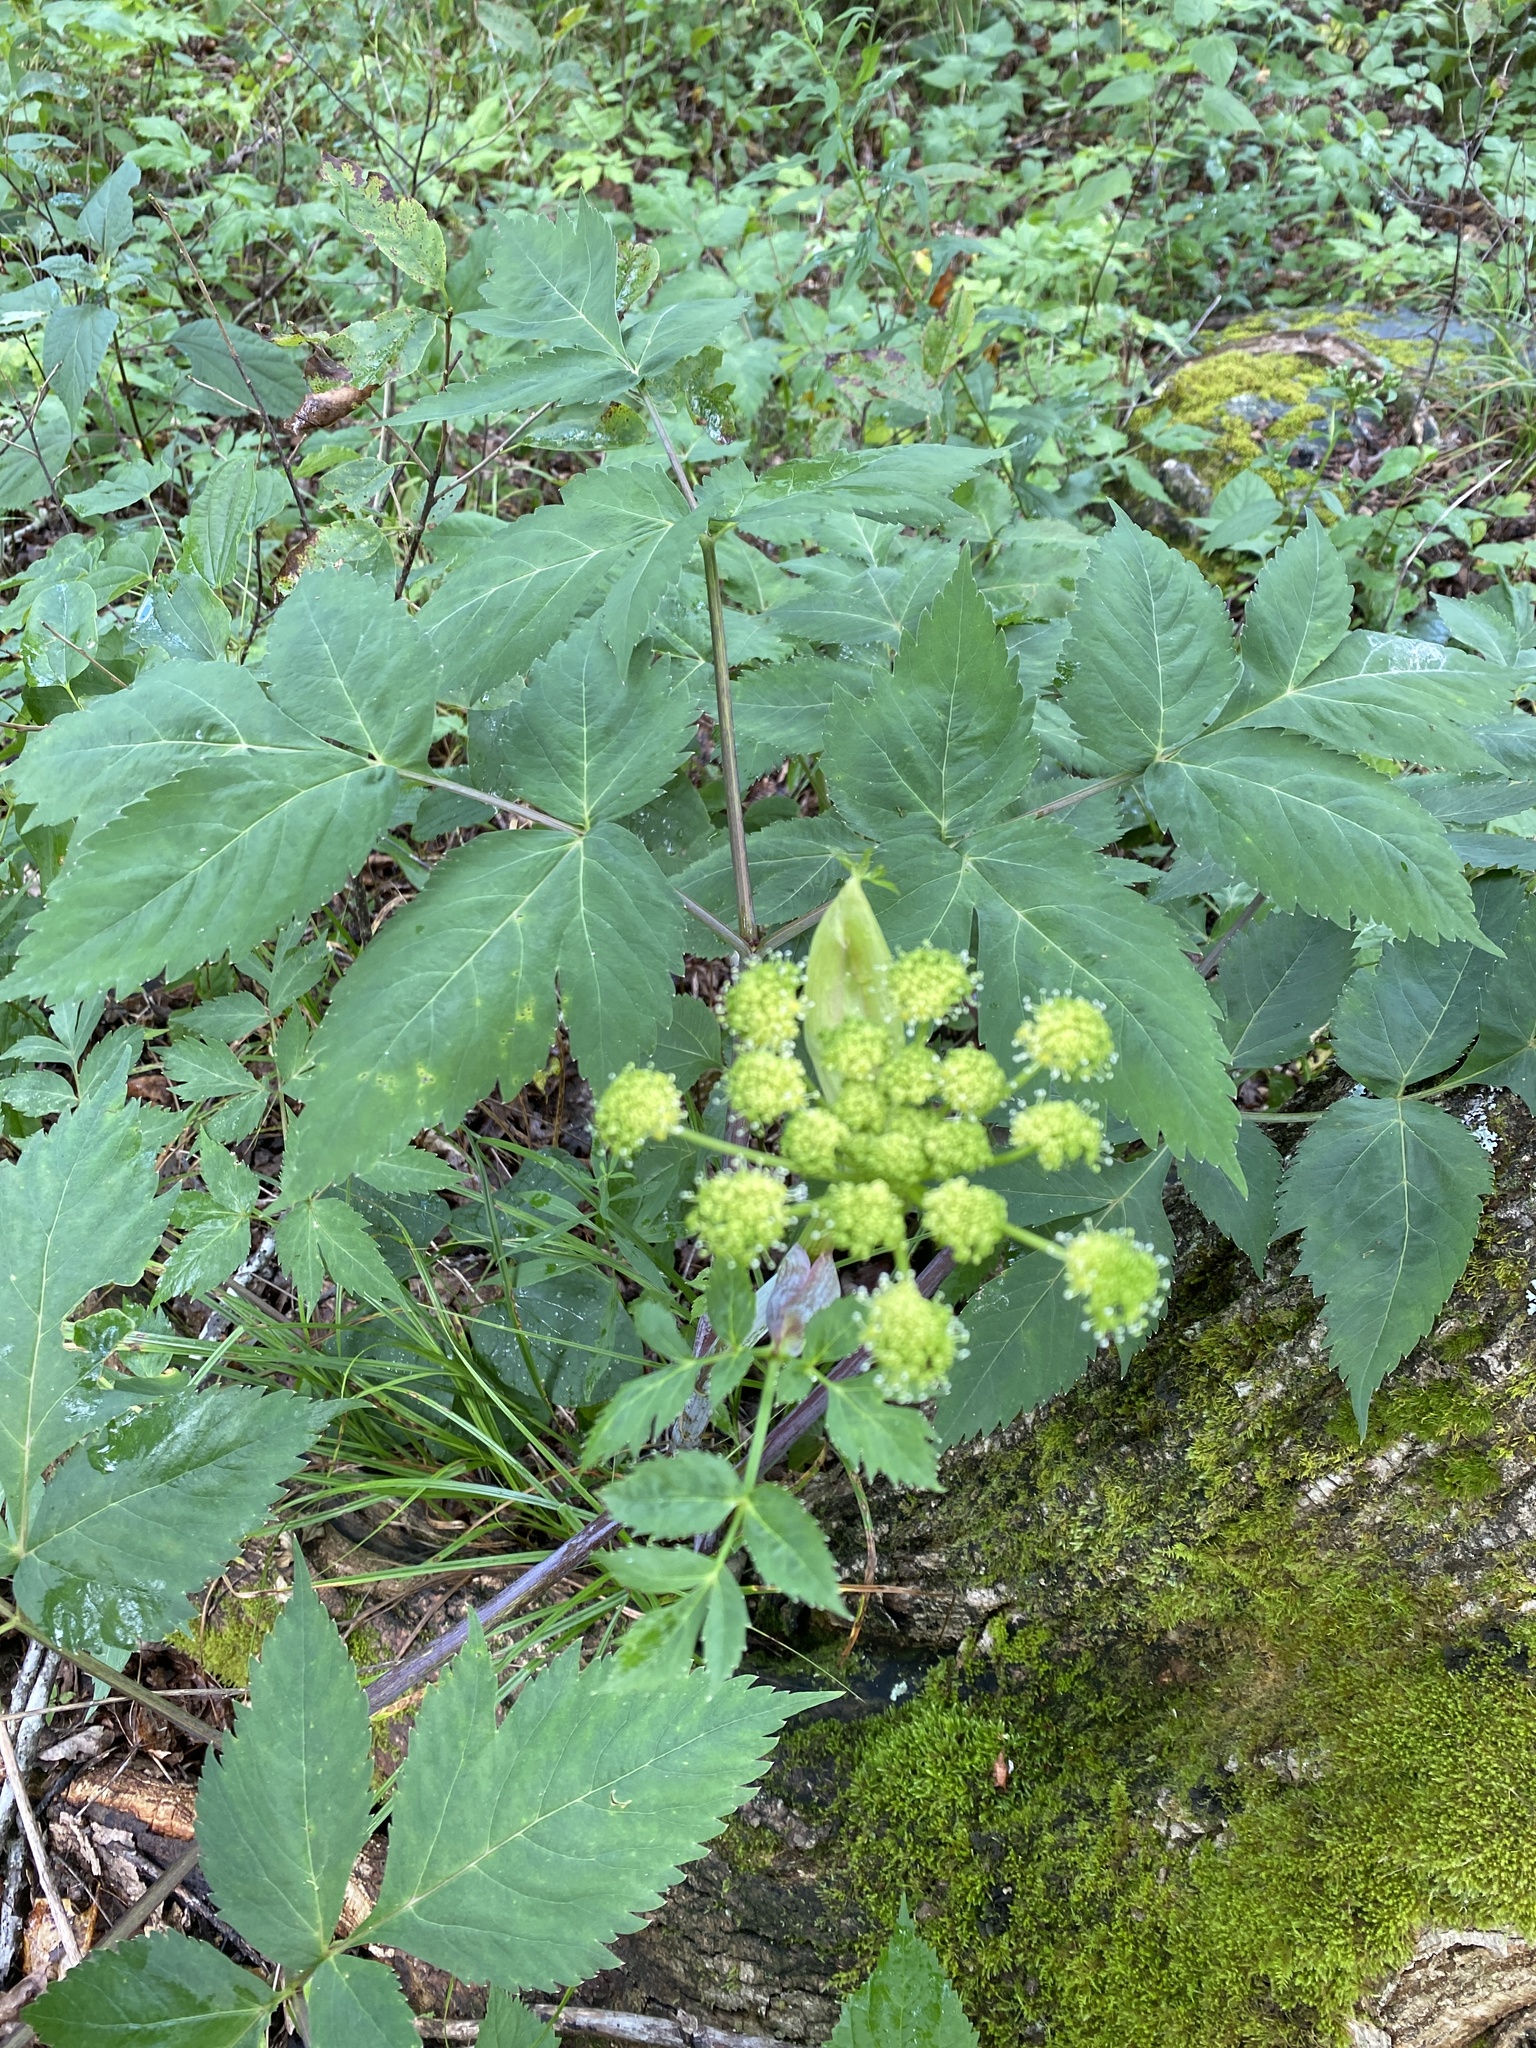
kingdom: Plantae
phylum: Tracheophyta
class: Magnoliopsida
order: Apiales
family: Apiaceae
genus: Angelica
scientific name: Angelica triquinata
